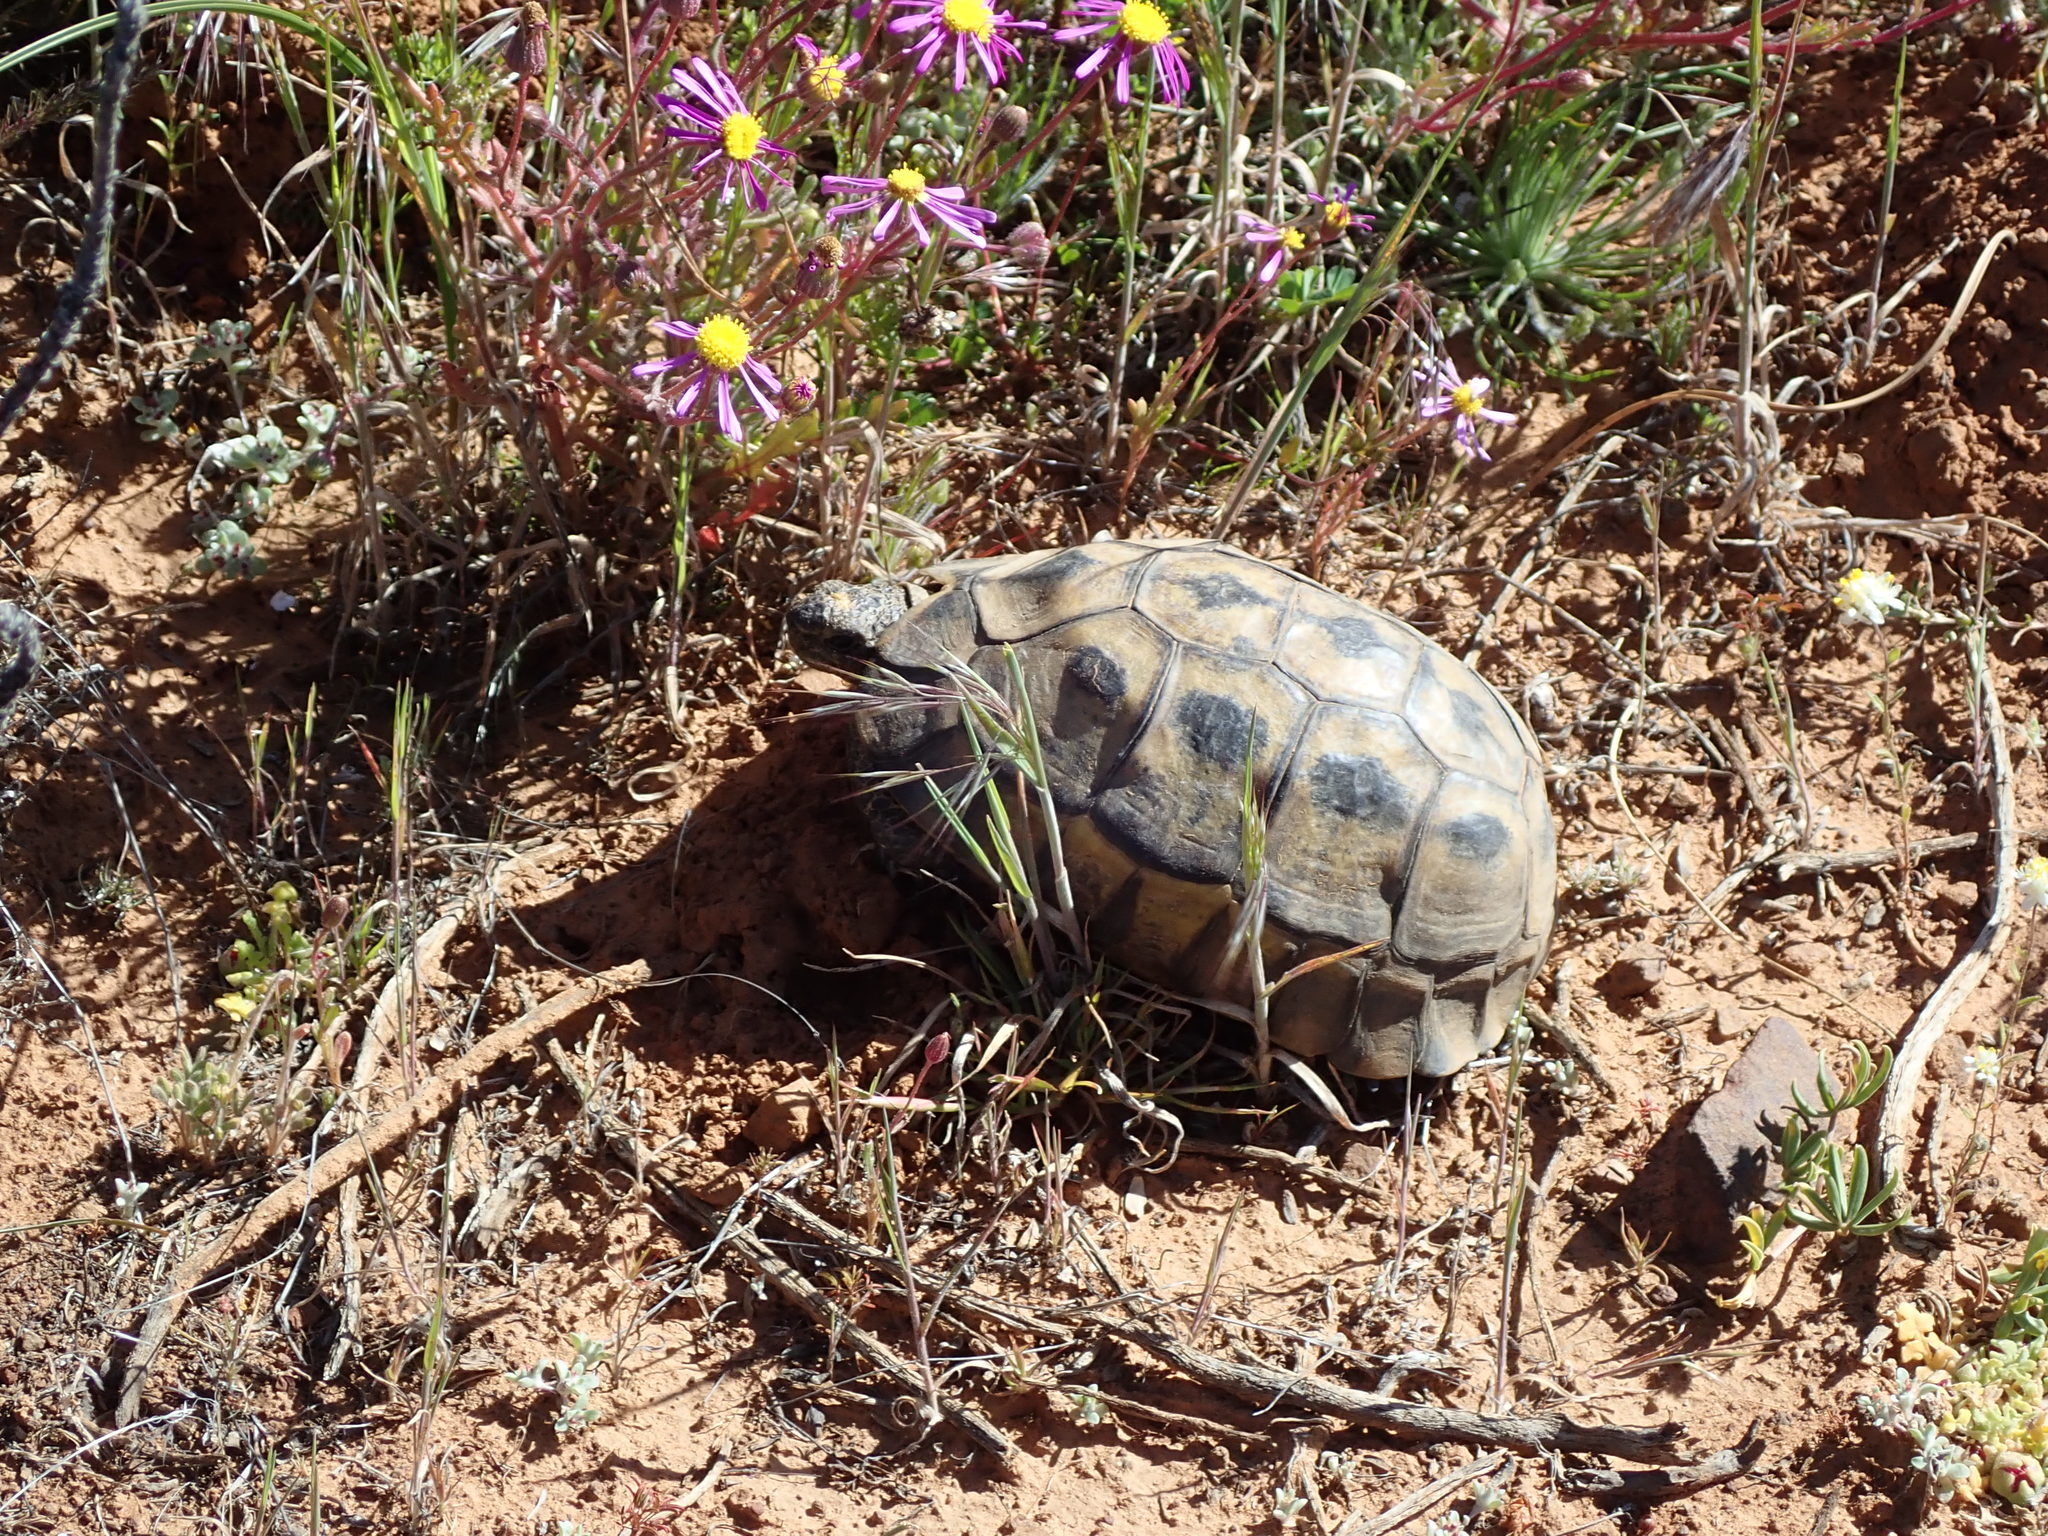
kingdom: Animalia
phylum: Chordata
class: Testudines
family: Testudinidae
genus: Chersina
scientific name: Chersina angulata
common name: South african bowsprit tortoise
